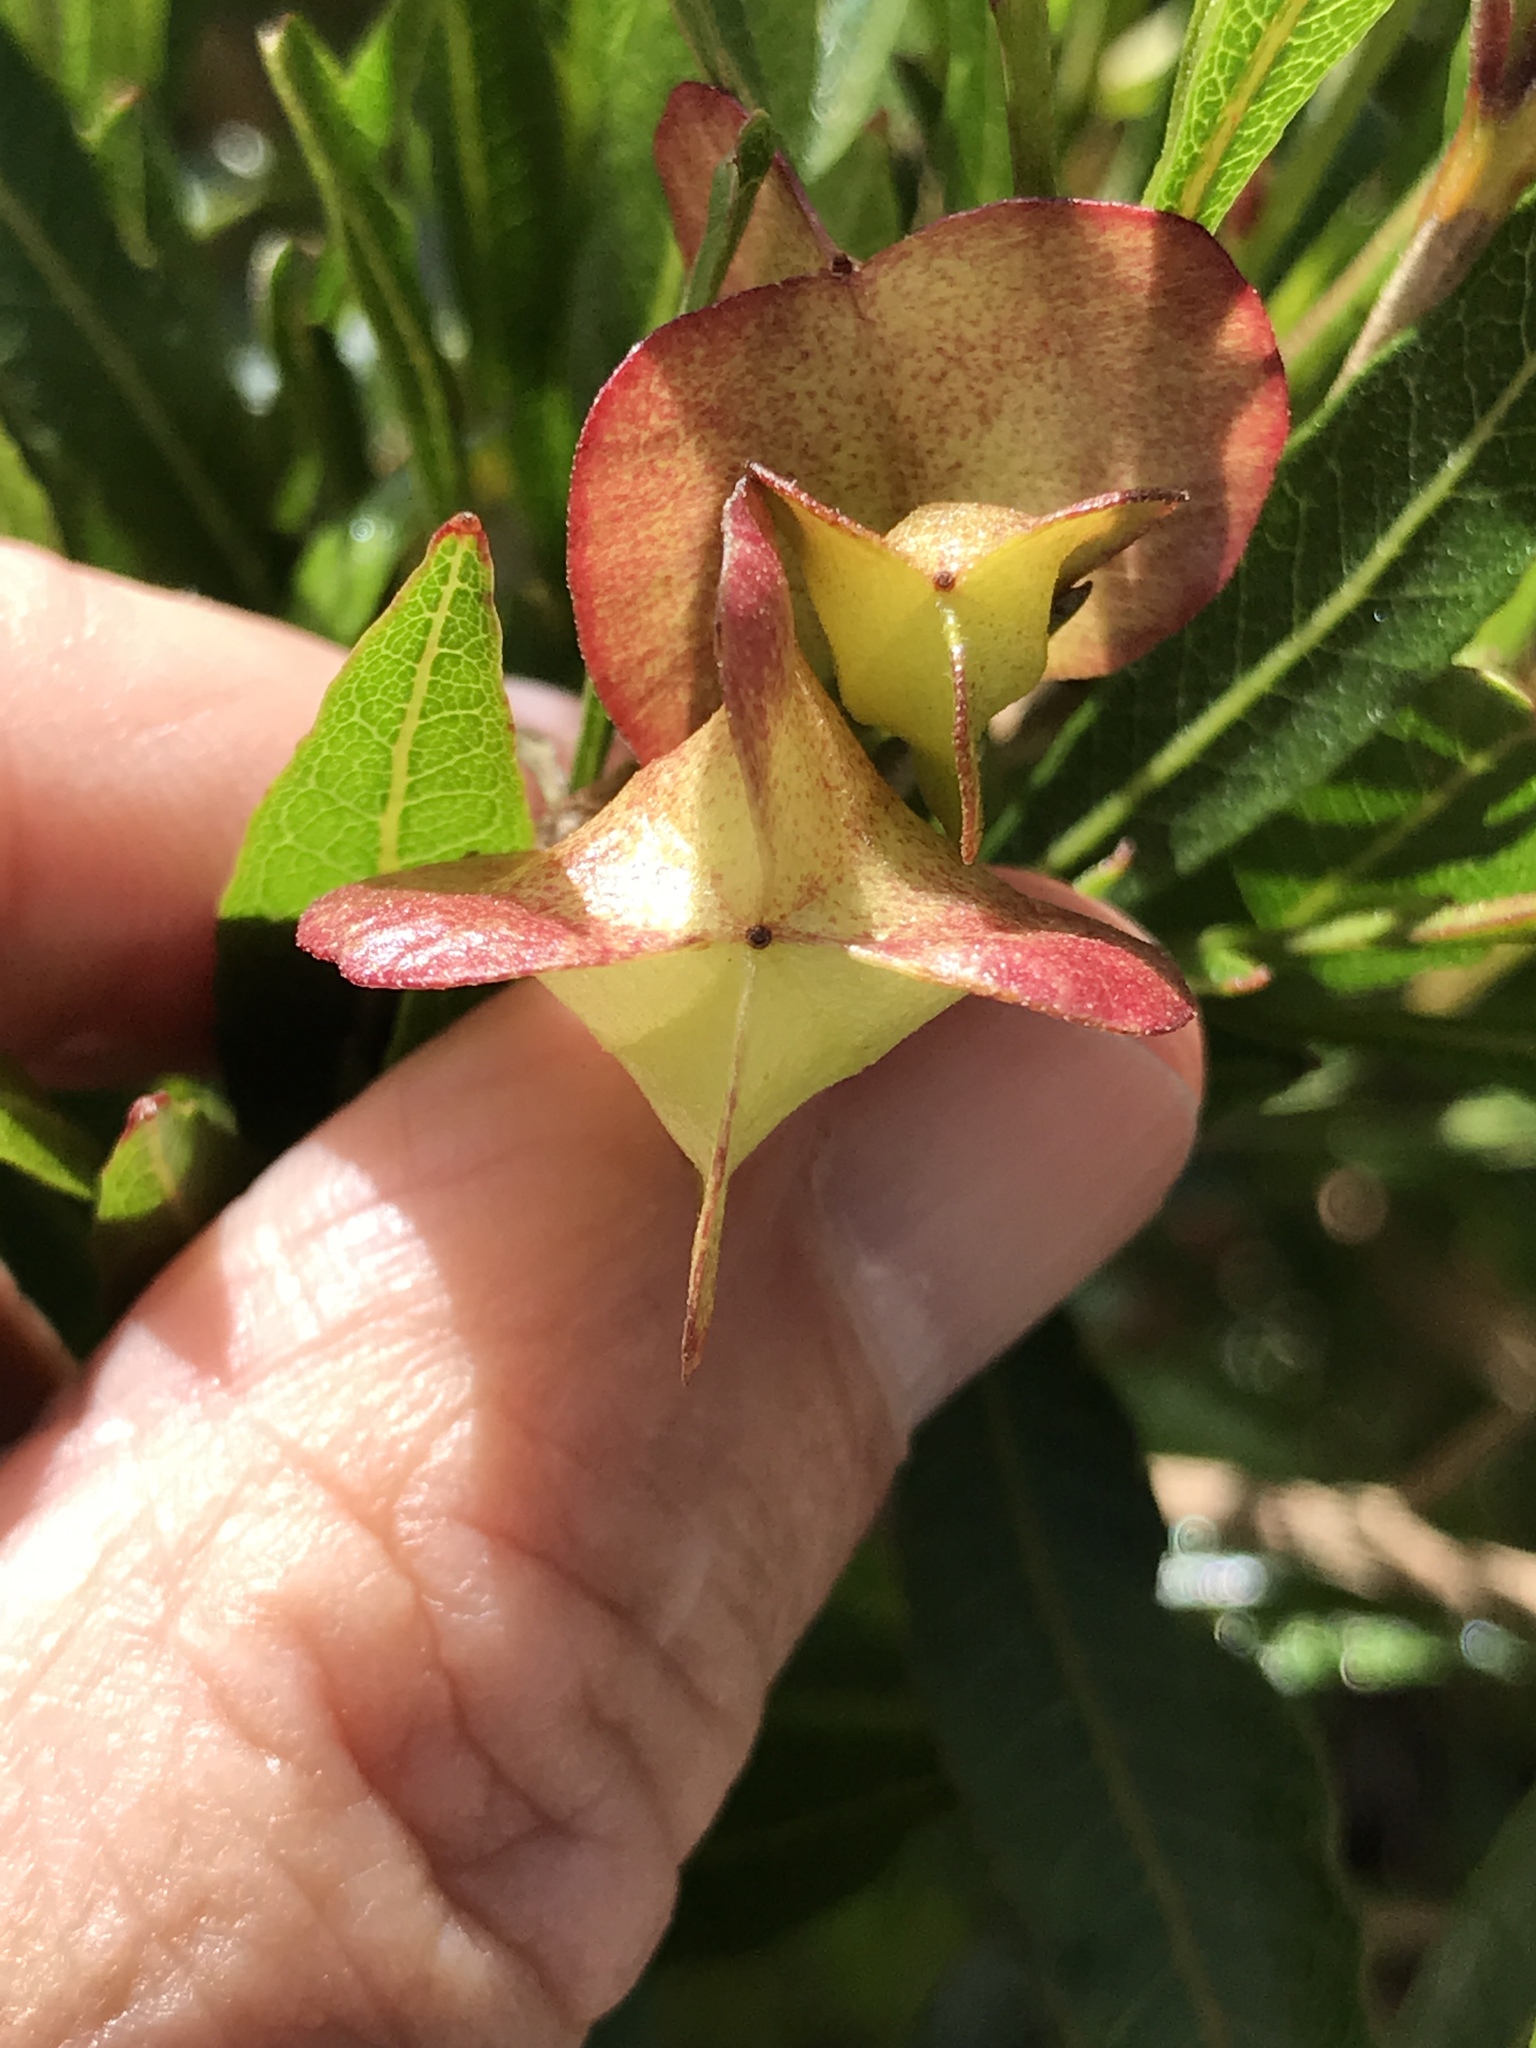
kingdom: Plantae
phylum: Tracheophyta
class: Magnoliopsida
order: Sapindales
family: Sapindaceae
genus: Dodonaea
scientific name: Dodonaea viscosa
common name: Hopbush
